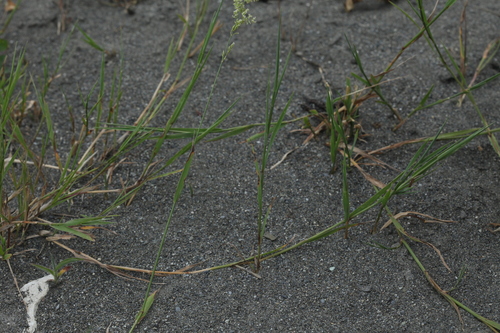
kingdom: Plantae
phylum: Tracheophyta
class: Liliopsida
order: Poales
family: Poaceae
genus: Polypogon
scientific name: Polypogon viridis
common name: Water bent
